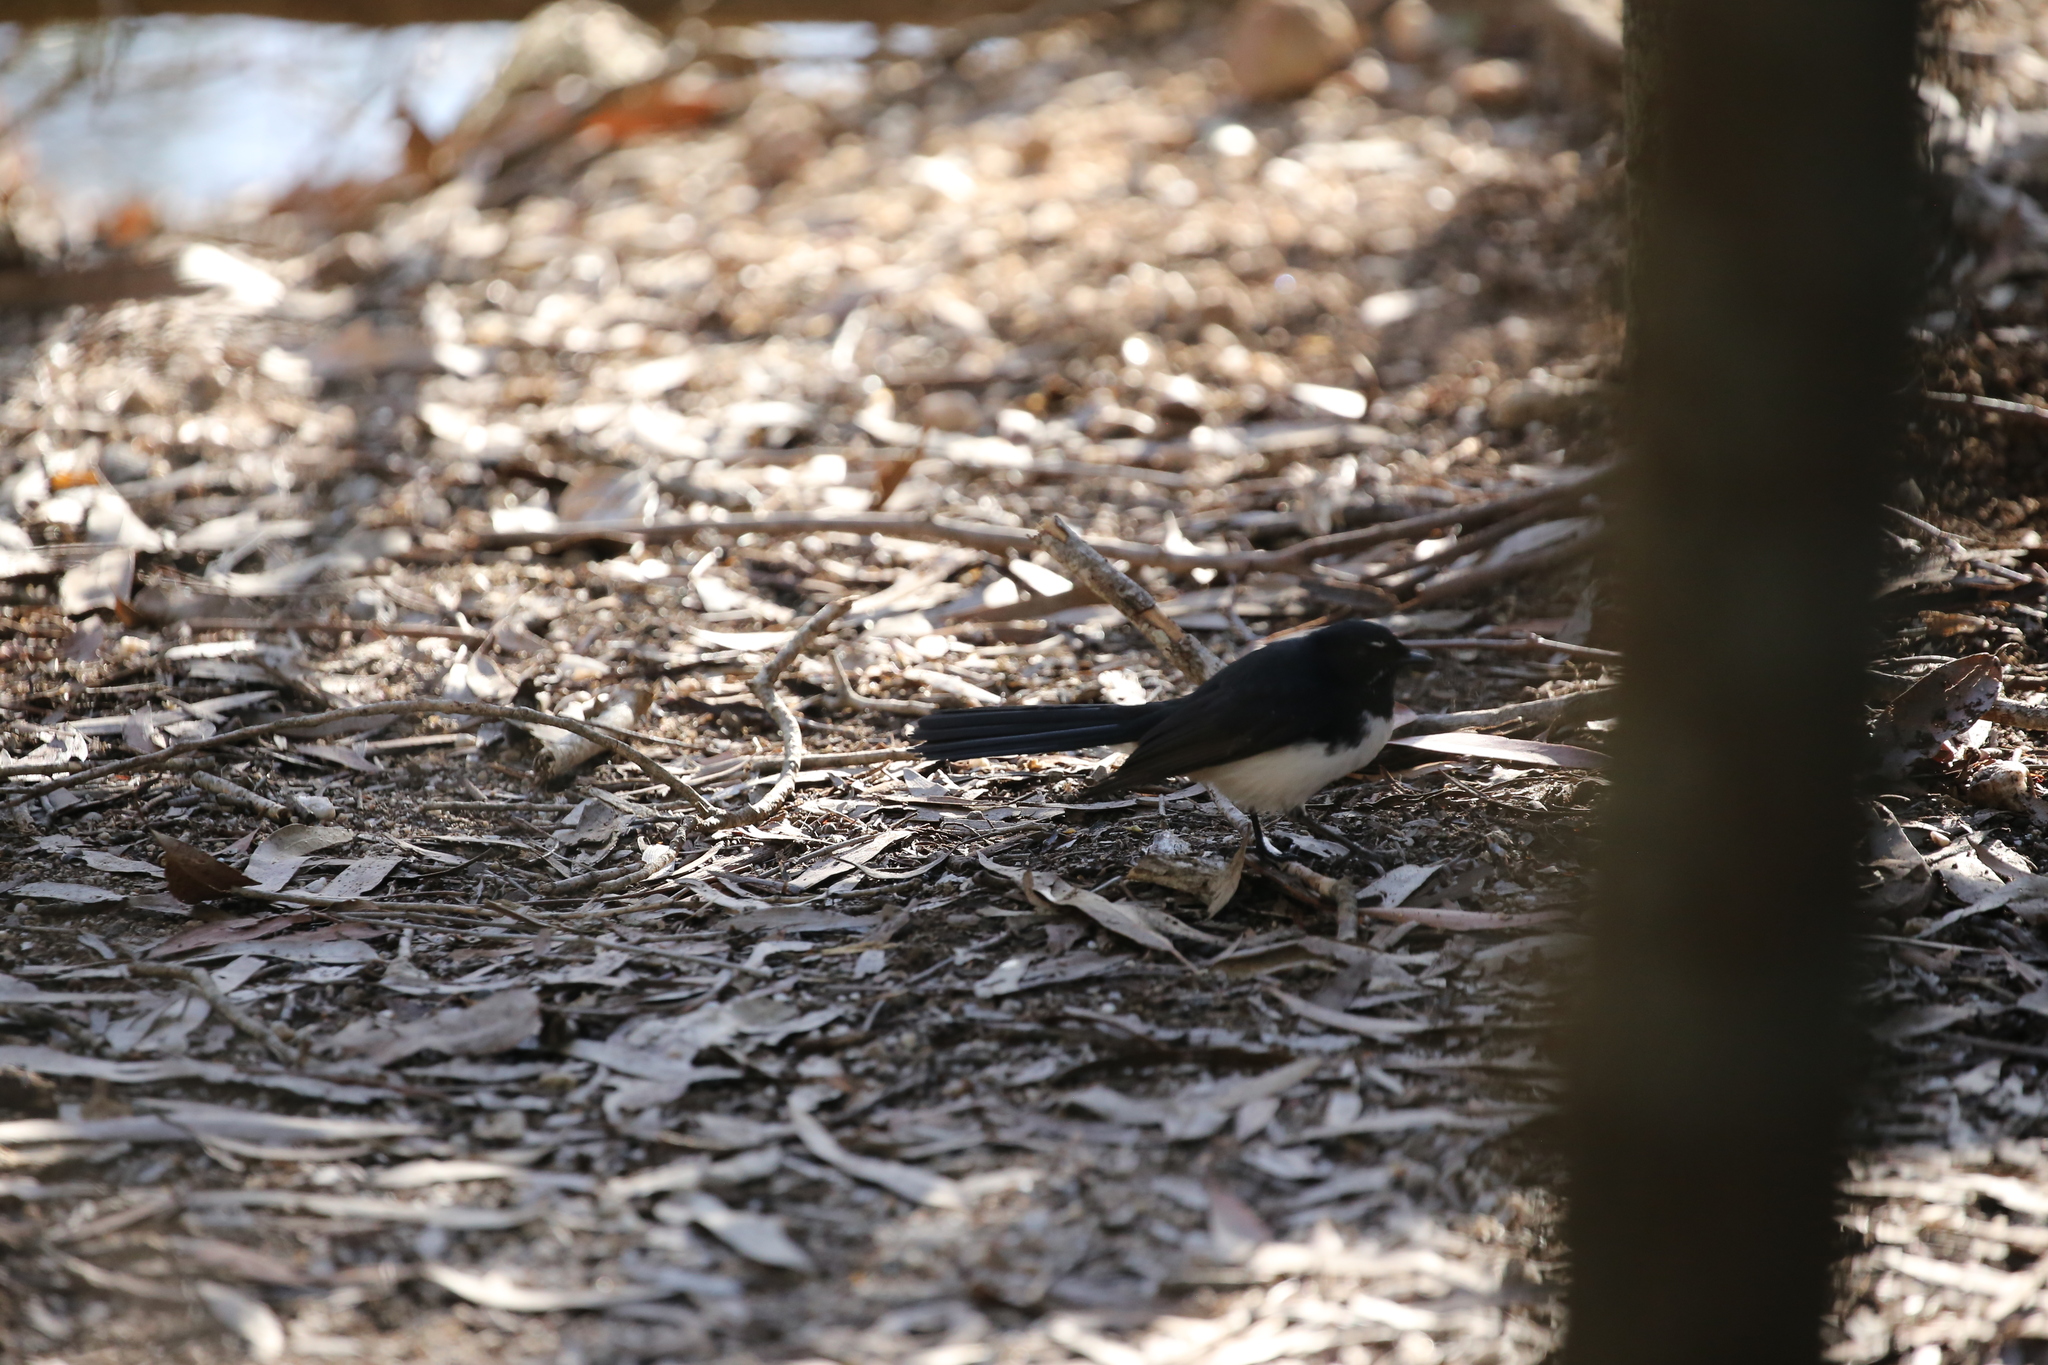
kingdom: Animalia
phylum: Chordata
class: Aves
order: Passeriformes
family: Rhipiduridae
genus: Rhipidura
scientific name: Rhipidura leucophrys
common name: Willie wagtail
